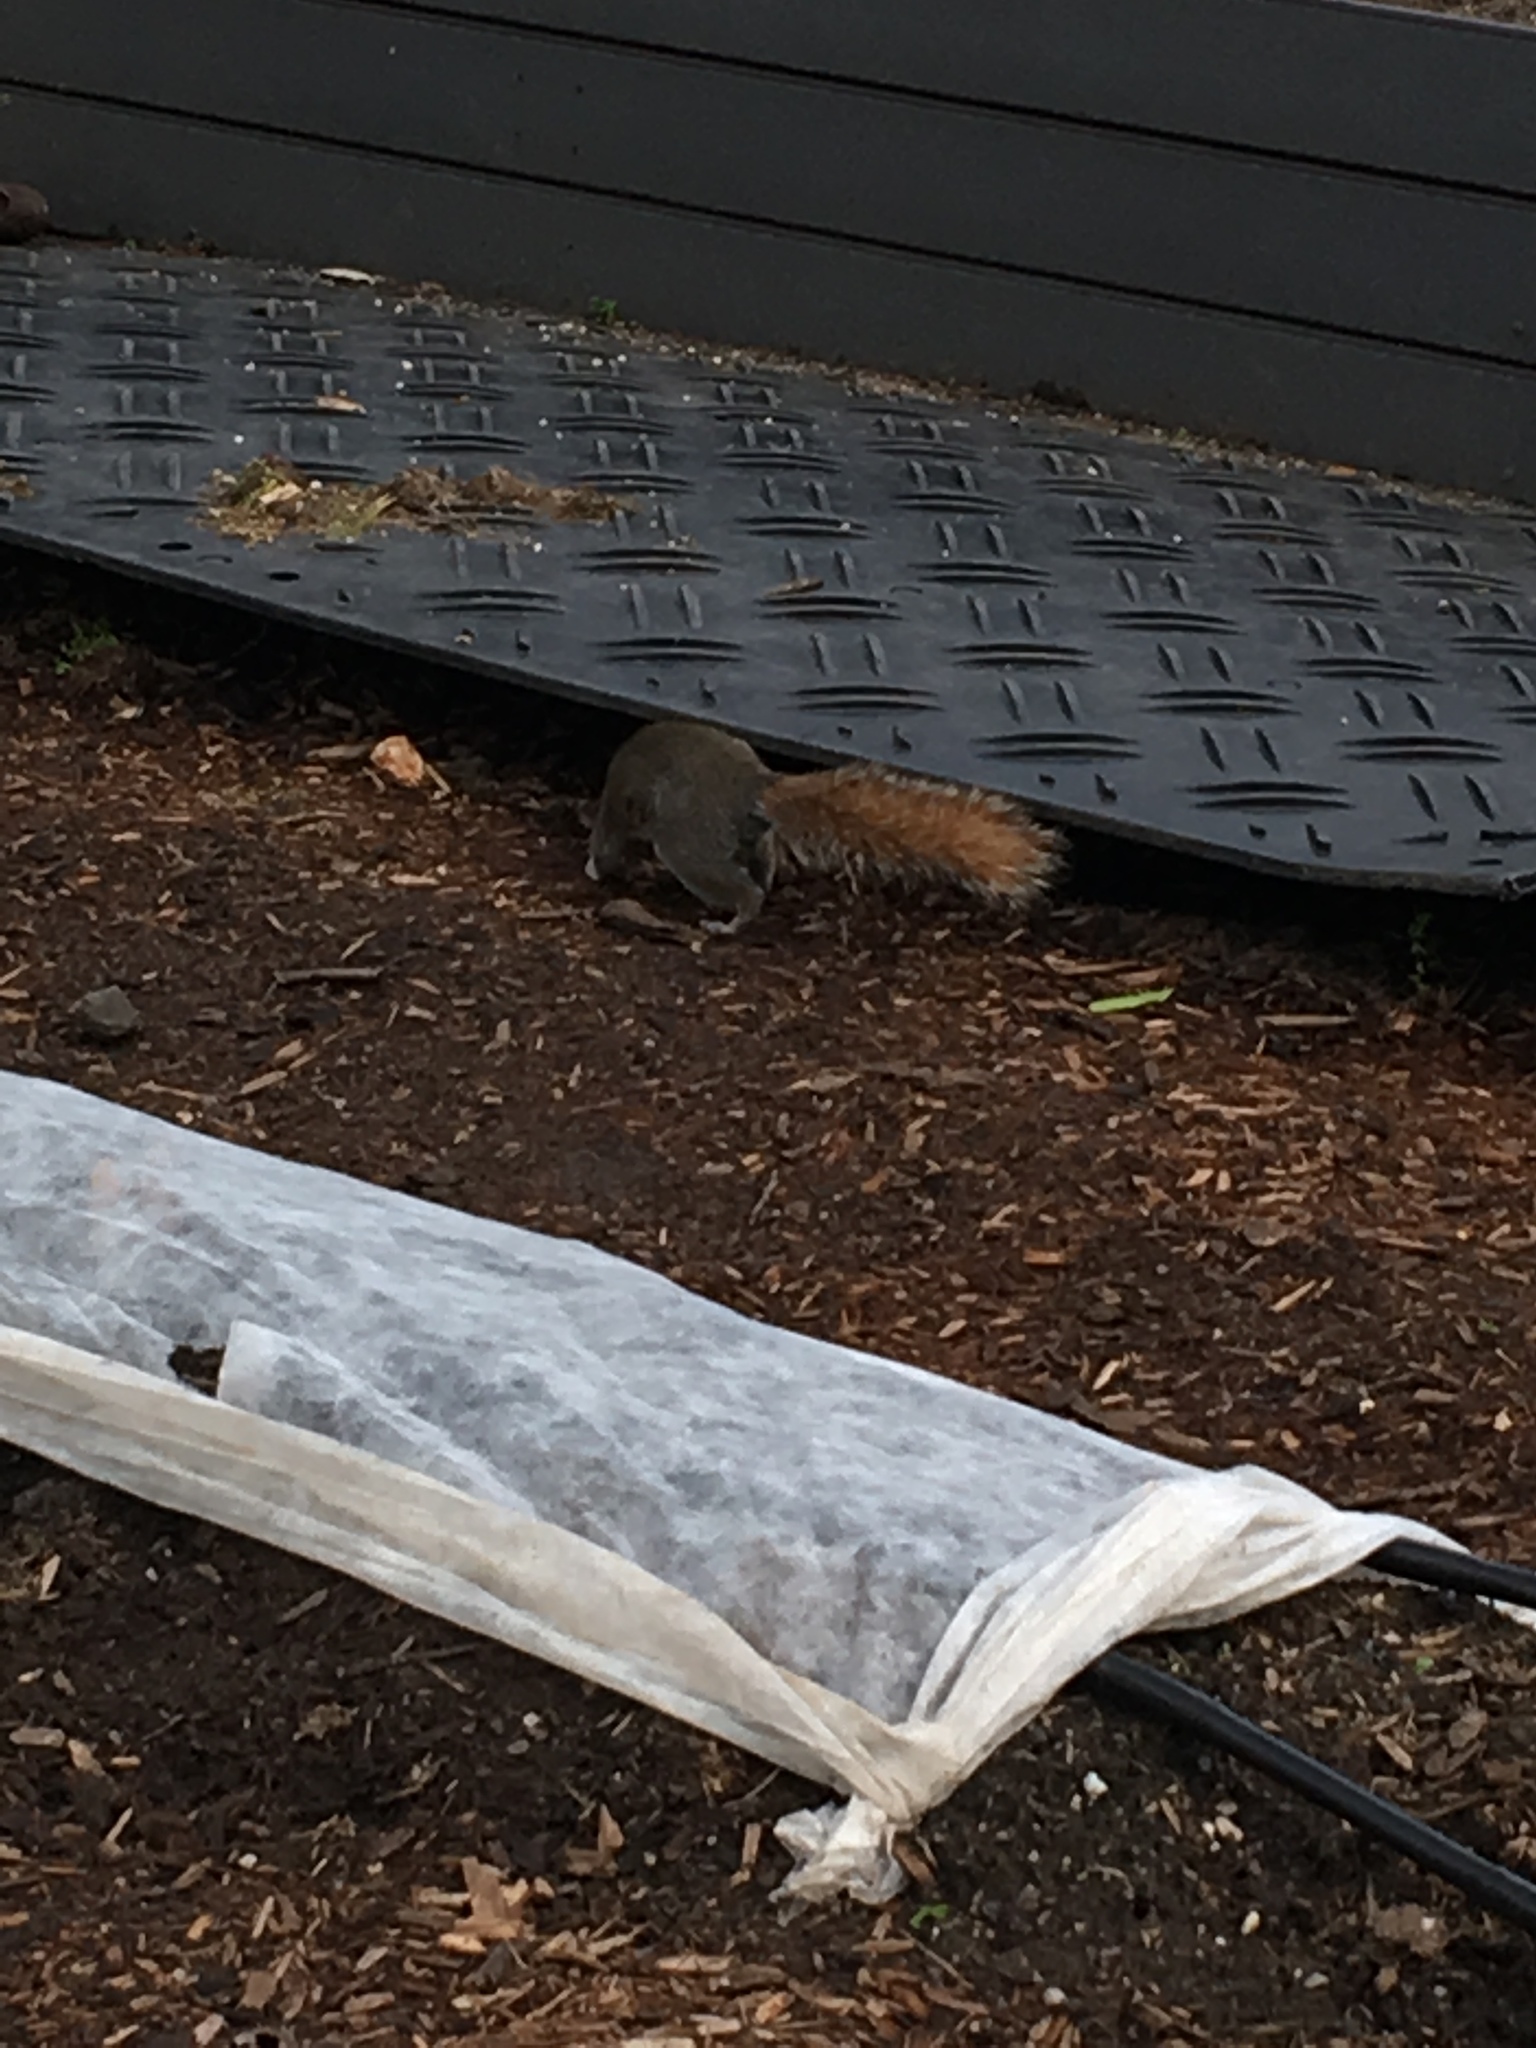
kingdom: Animalia
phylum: Chordata
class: Mammalia
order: Rodentia
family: Sciuridae
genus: Sciurus
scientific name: Sciurus carolinensis
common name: Eastern gray squirrel
